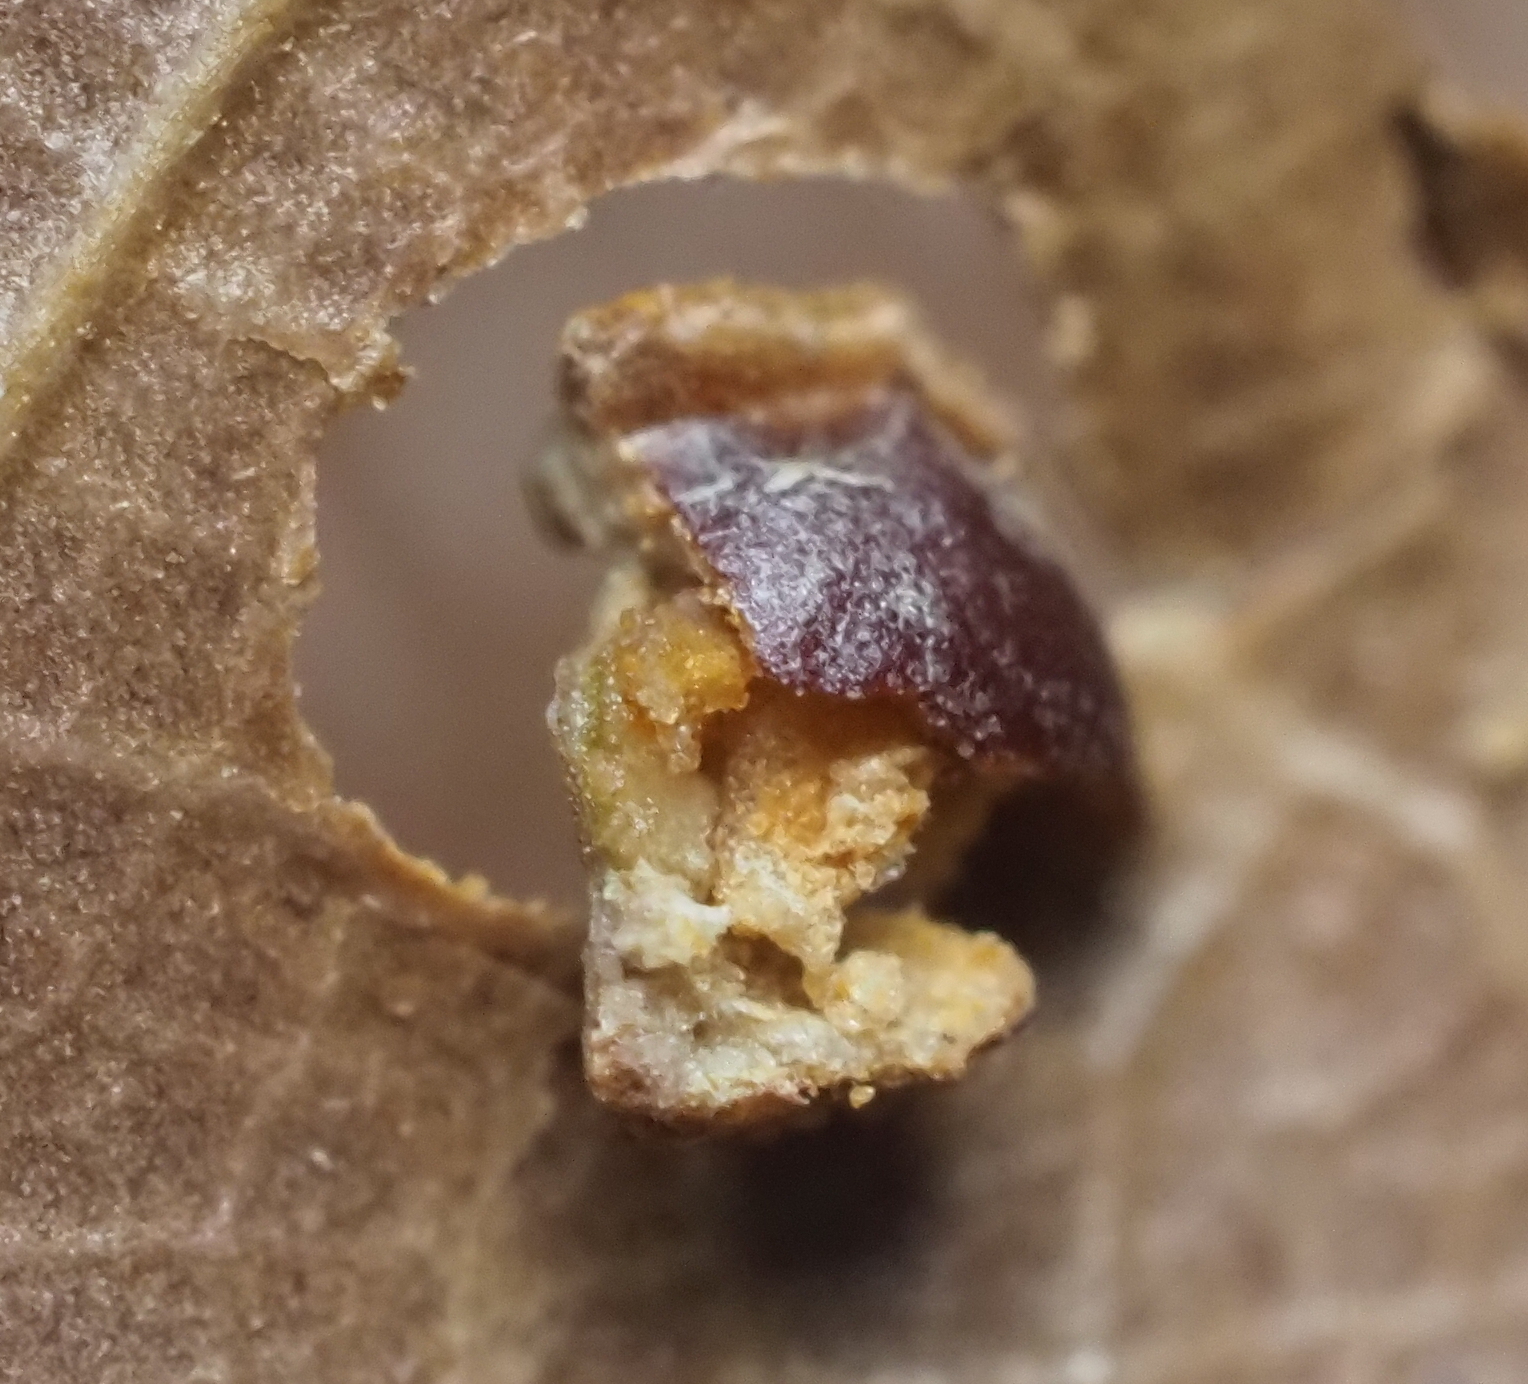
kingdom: Animalia
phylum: Arthropoda
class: Insecta
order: Diptera
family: Cecidomyiidae
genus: Polystepha
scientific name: Polystepha globosa
